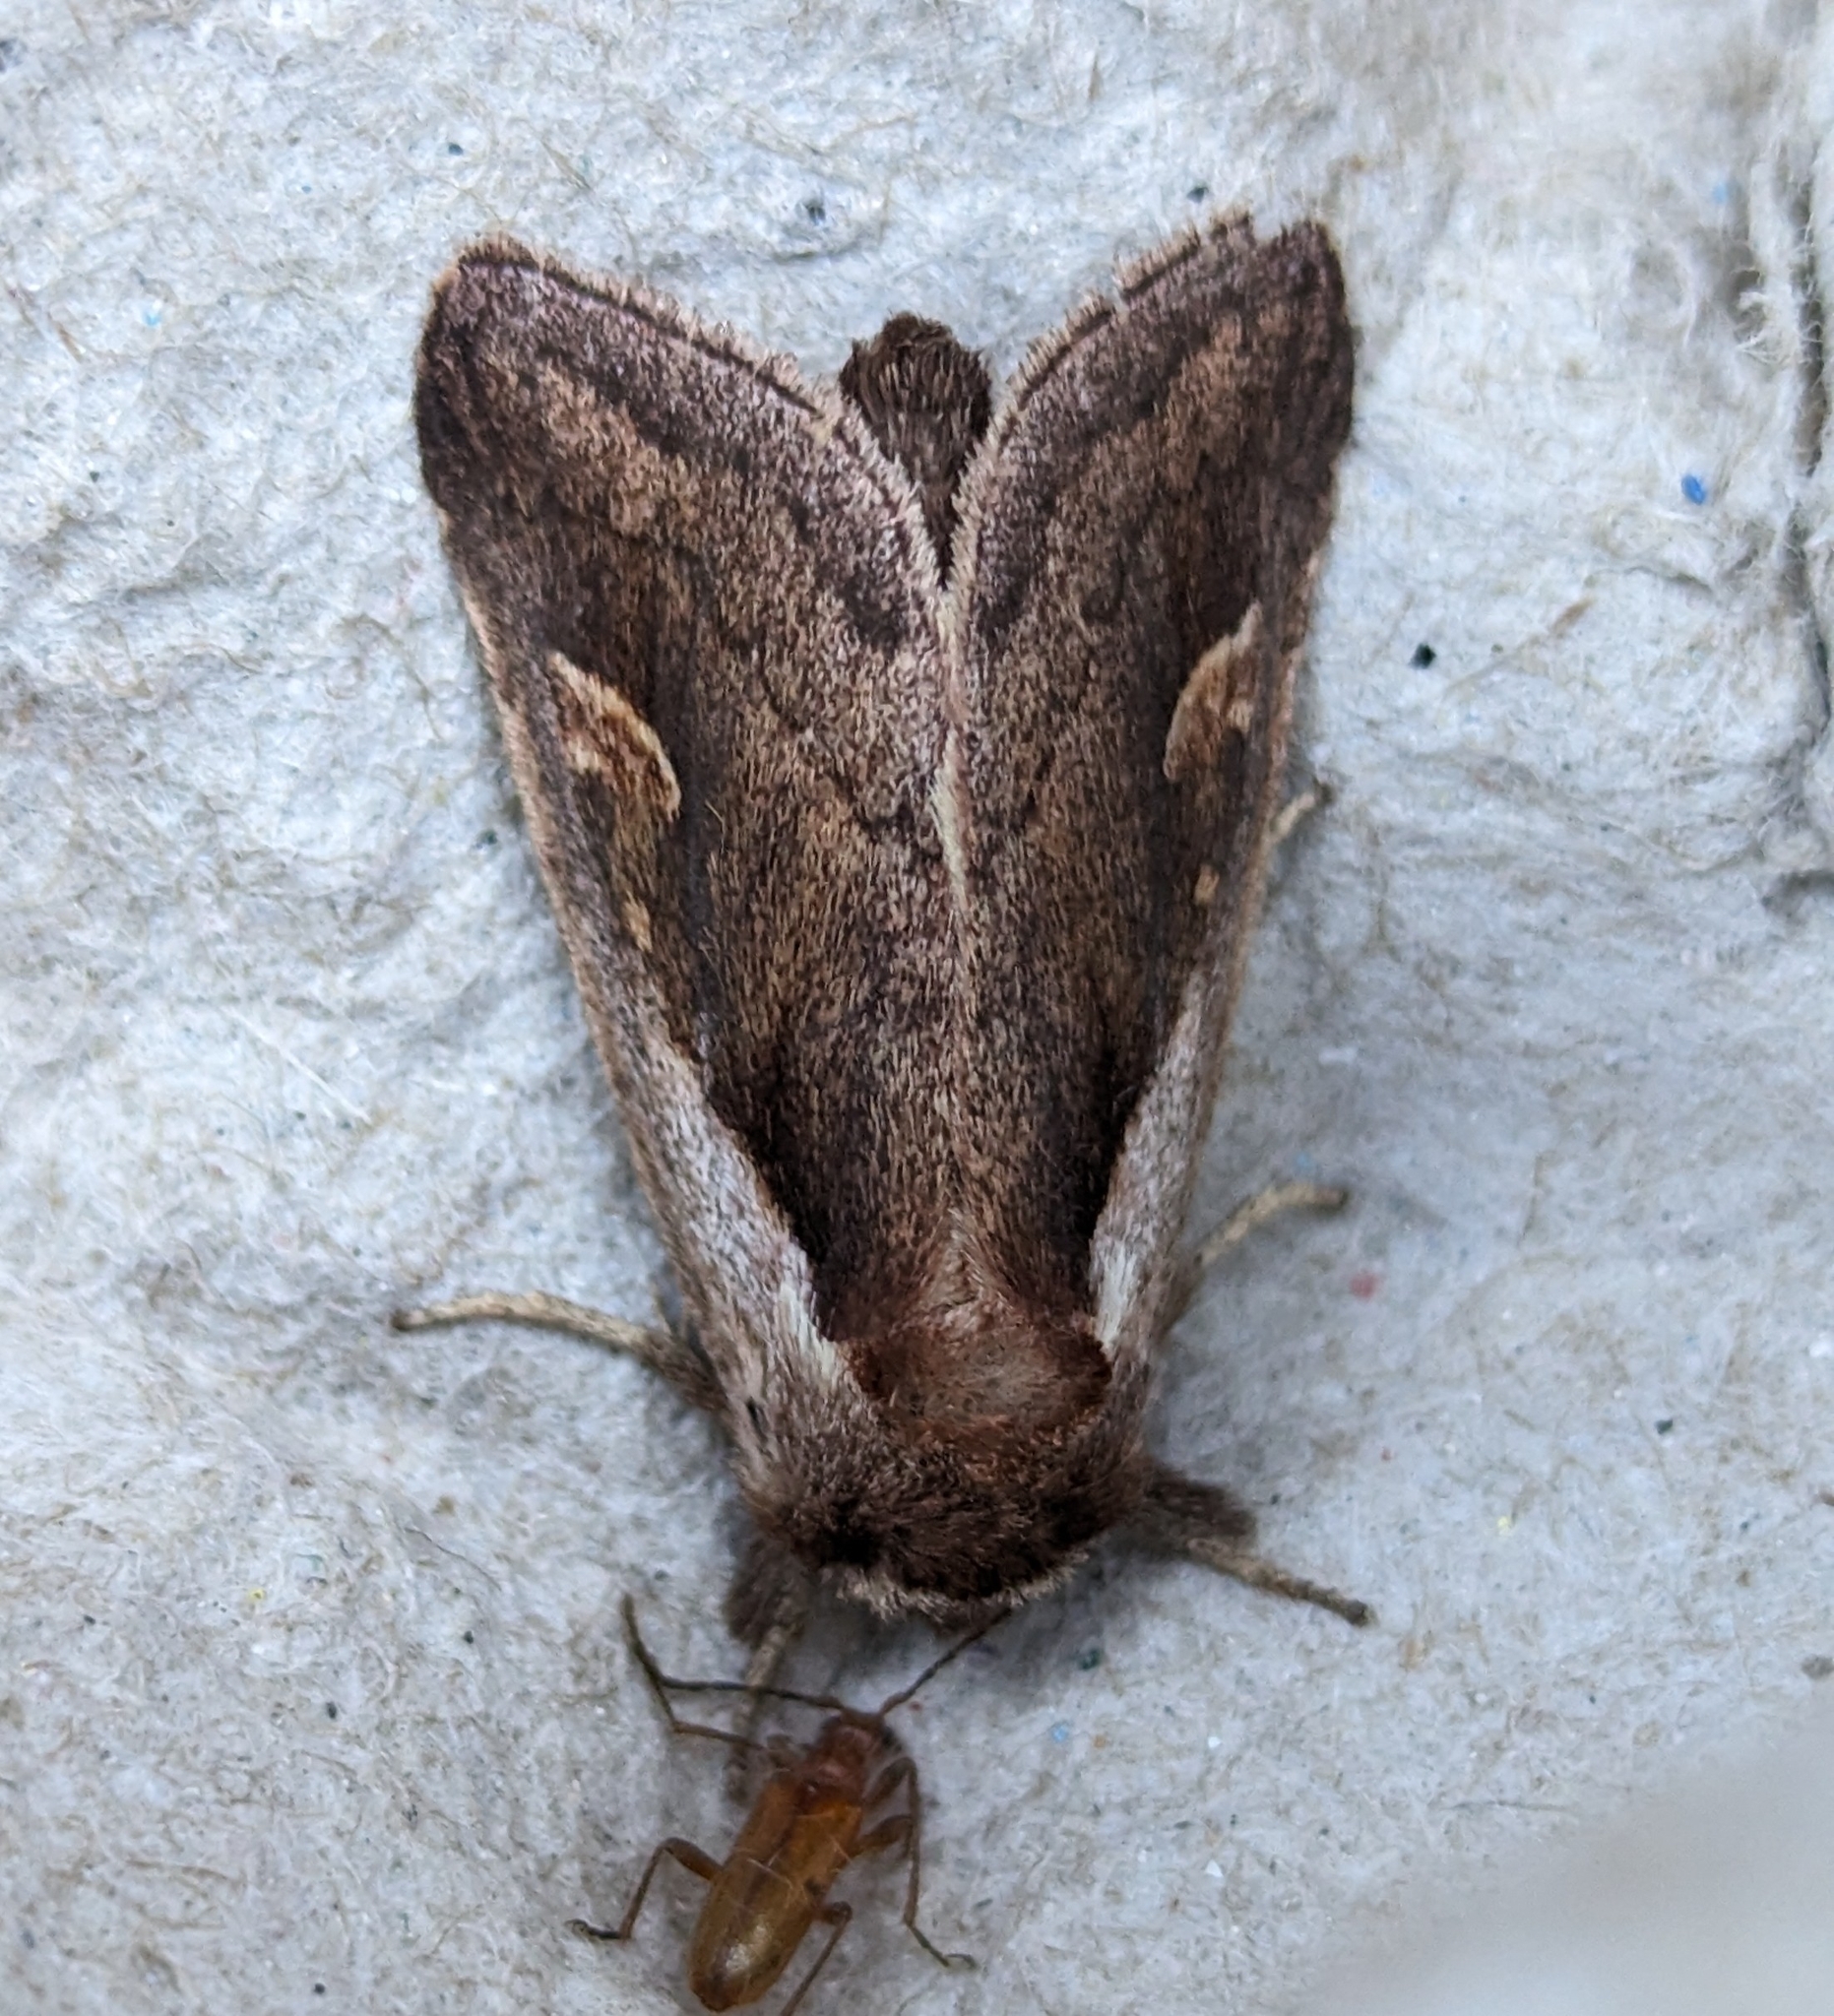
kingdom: Animalia
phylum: Arthropoda
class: Insecta
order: Lepidoptera
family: Noctuidae
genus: Bellura
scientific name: Bellura obliqua
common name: Cattail borer moth
